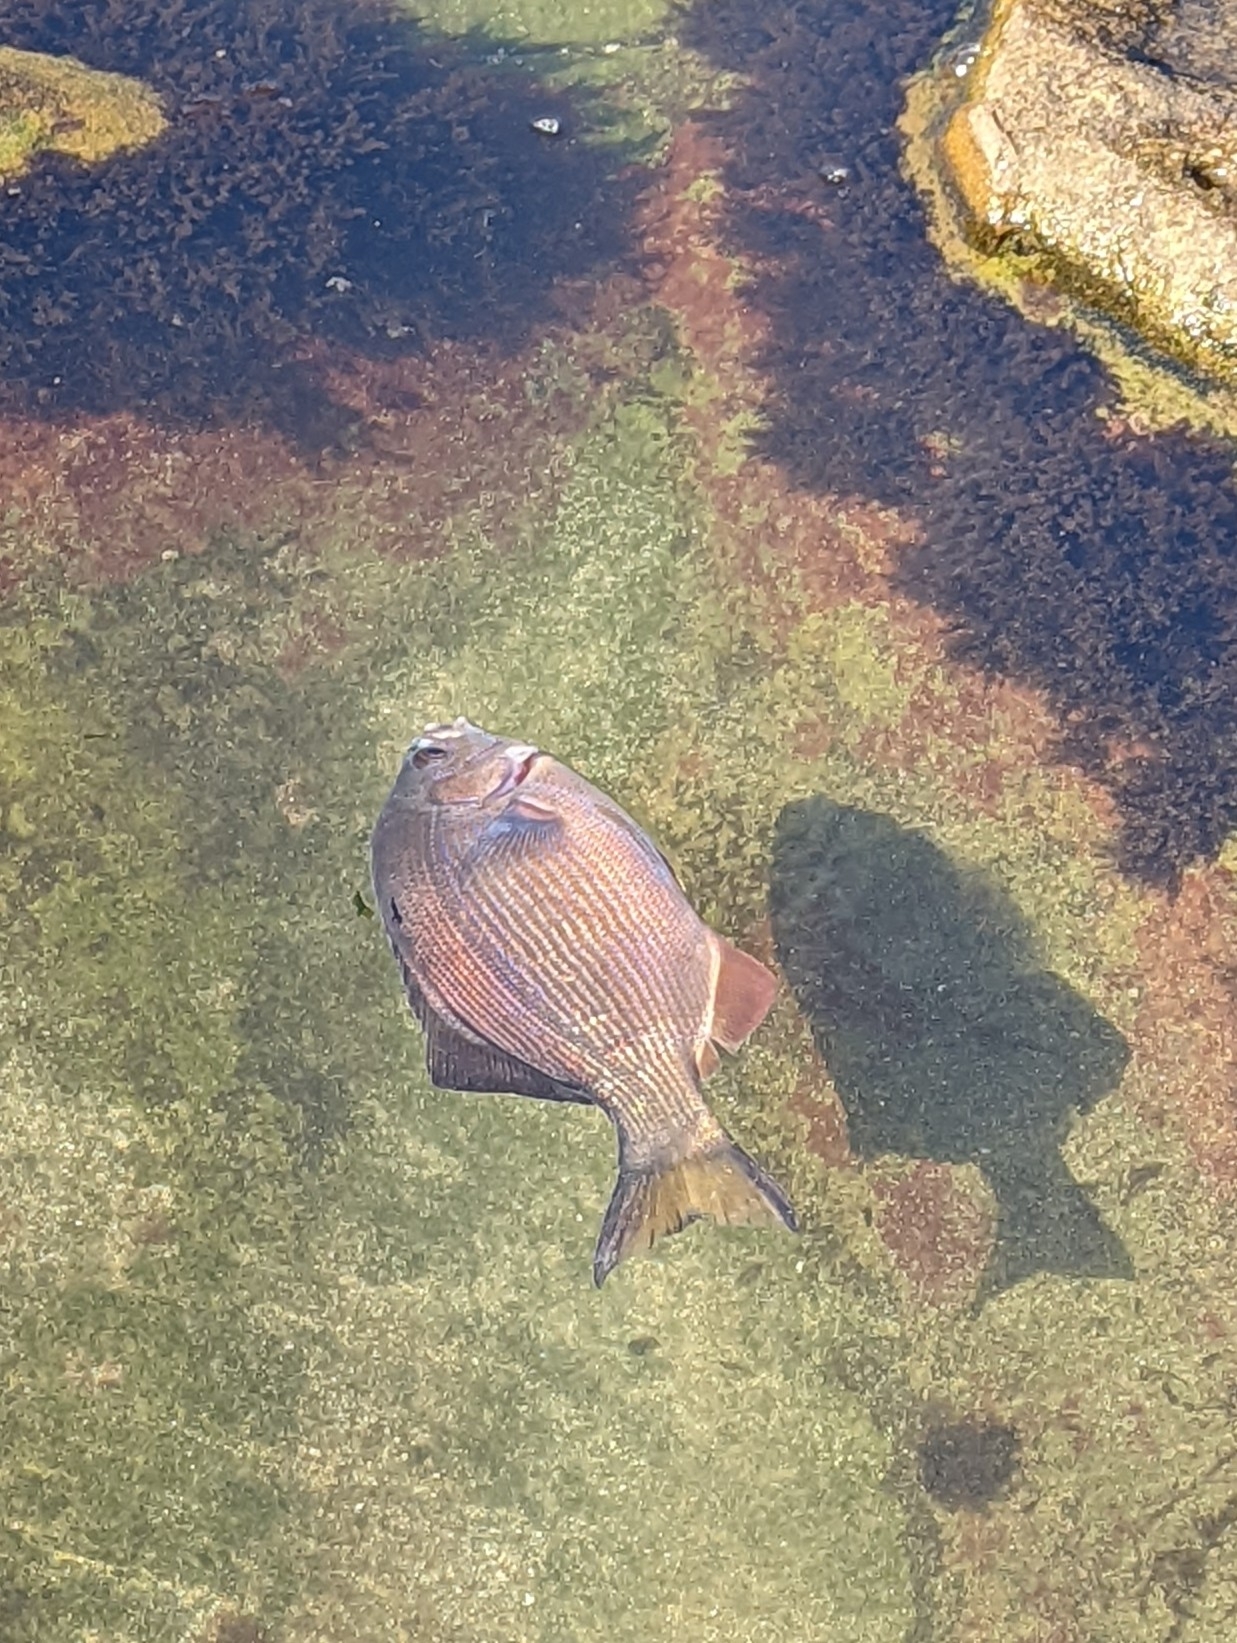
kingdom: Animalia
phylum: Chordata
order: Perciformes
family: Embiotocidae
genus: Embiotoca
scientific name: Embiotoca lateralis
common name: Striped surfperch
